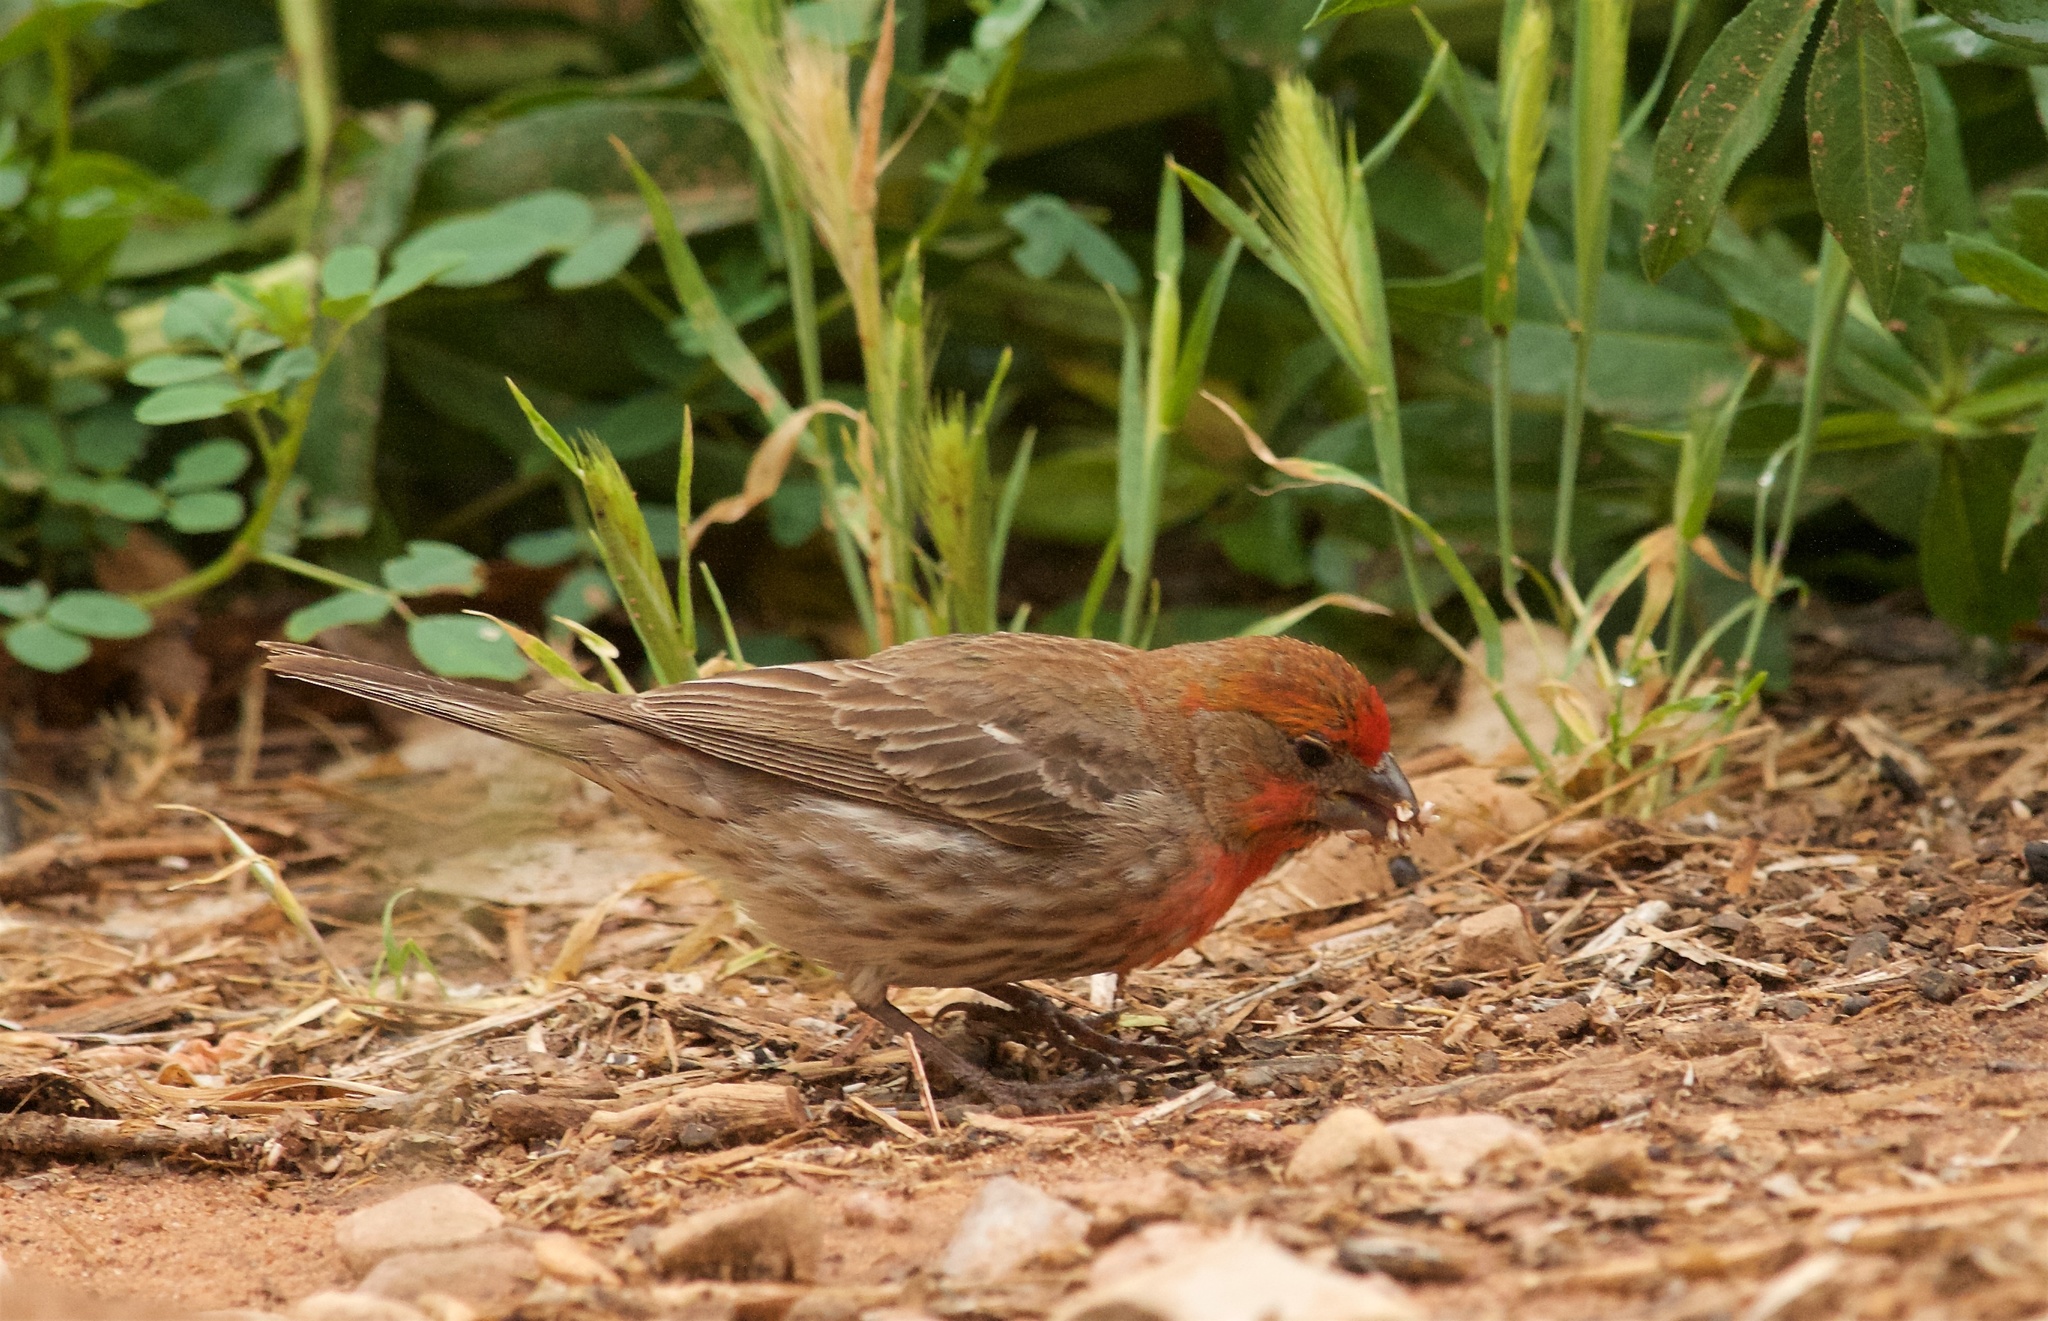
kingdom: Animalia
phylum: Chordata
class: Aves
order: Passeriformes
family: Fringillidae
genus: Haemorhous
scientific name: Haemorhous mexicanus
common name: House finch
